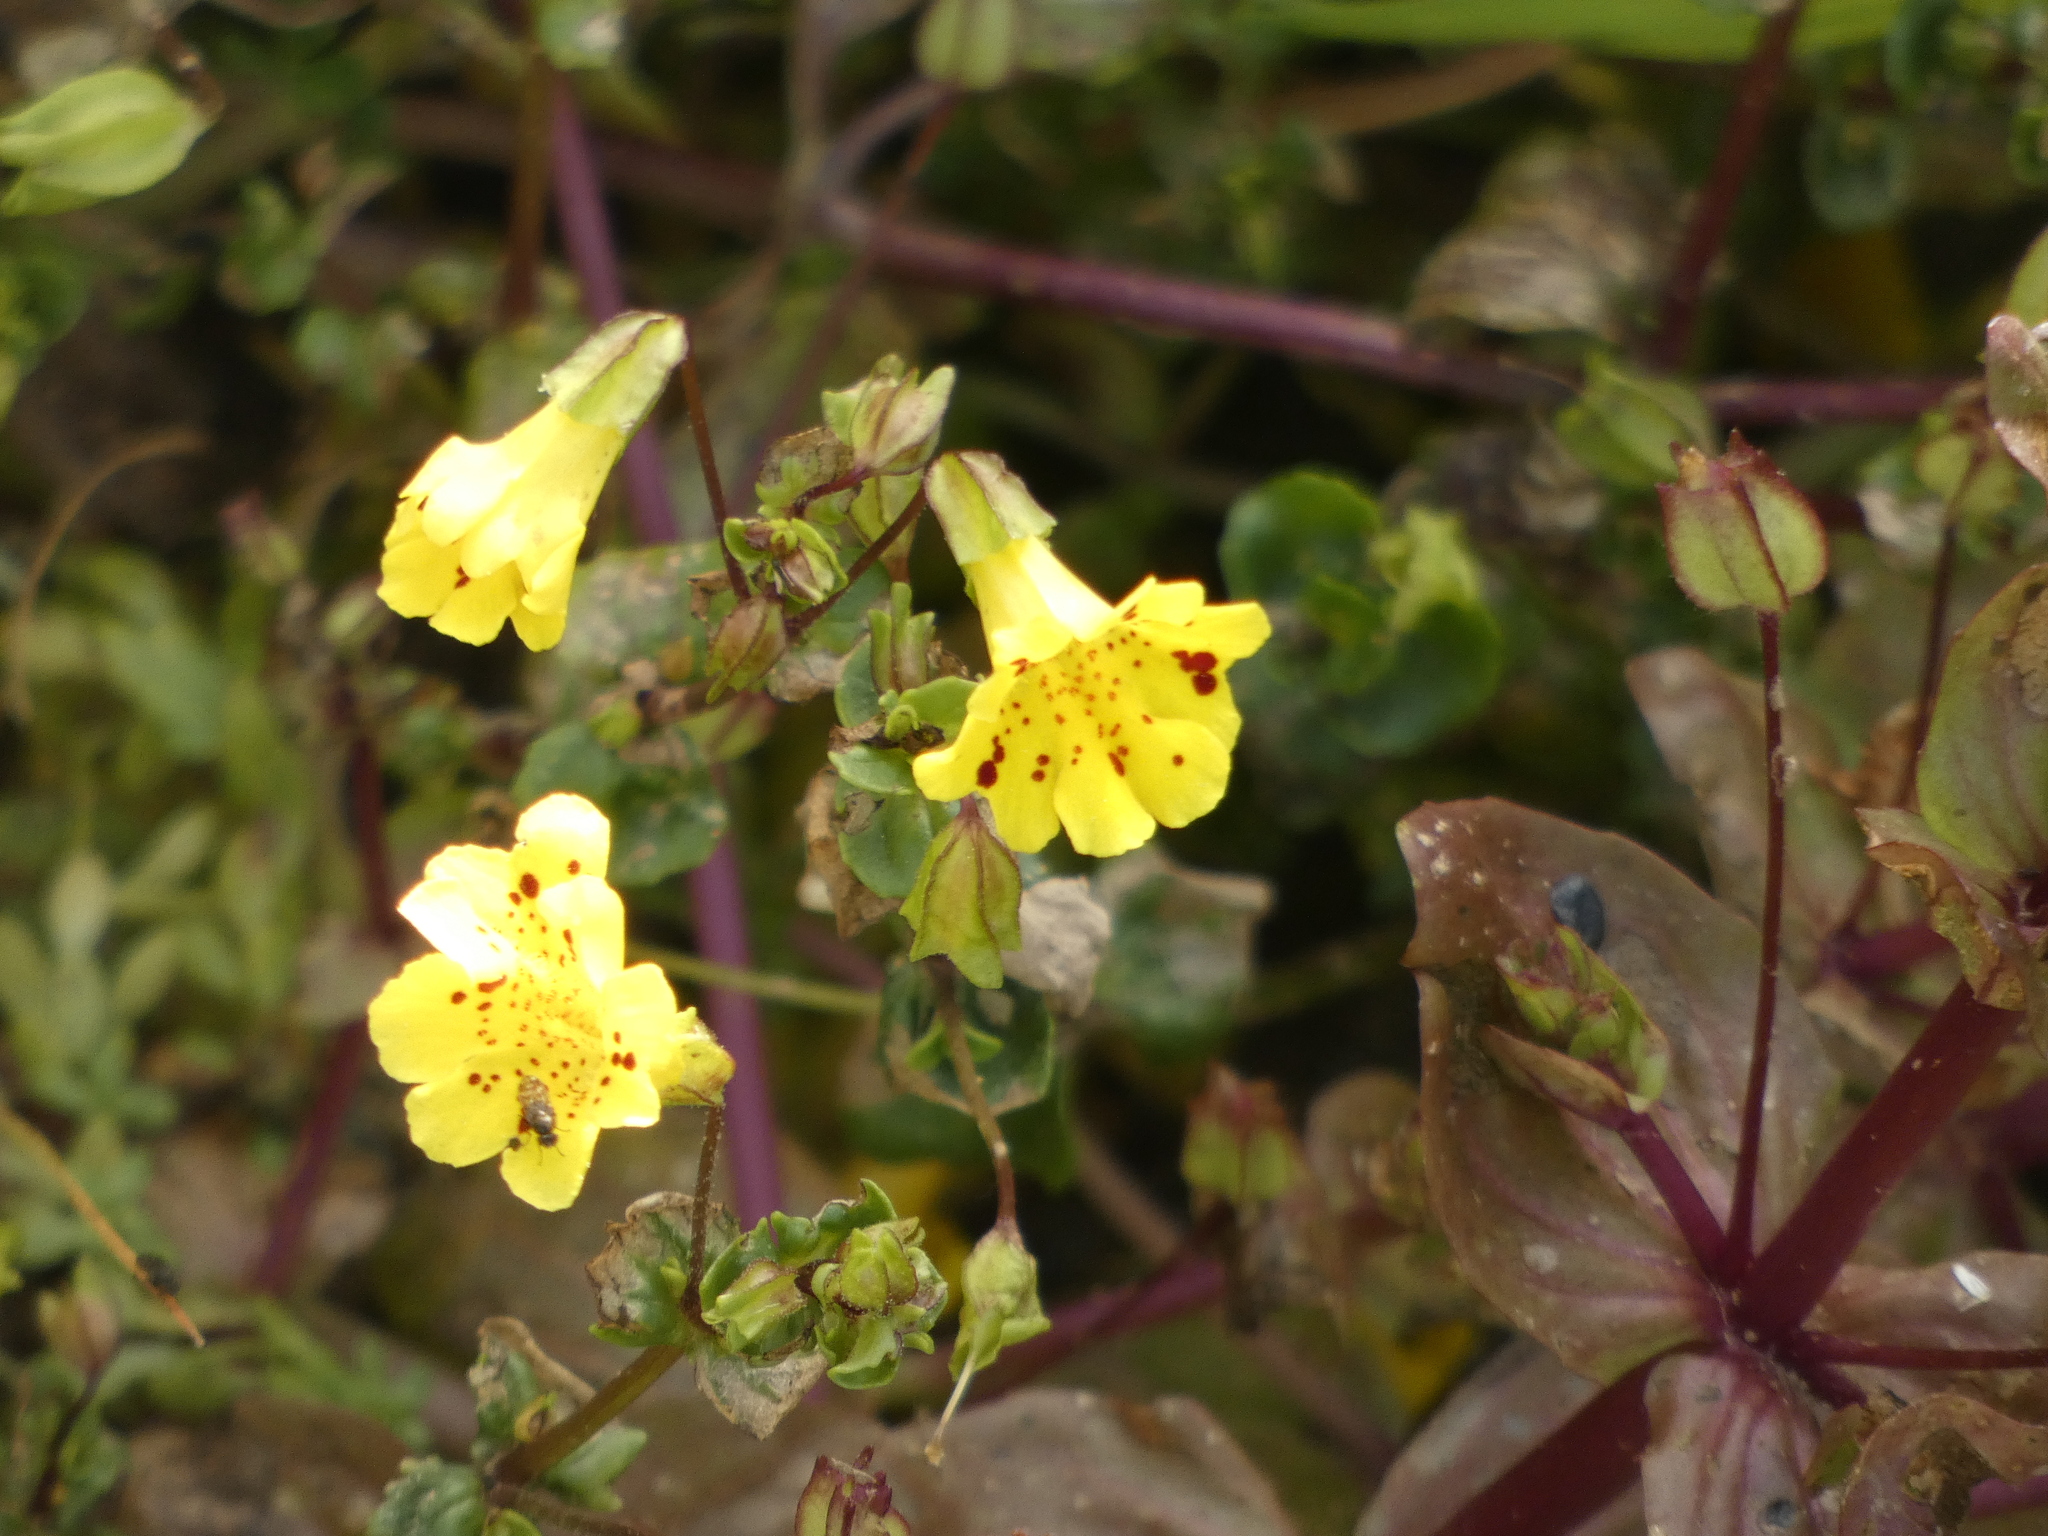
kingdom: Plantae
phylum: Tracheophyta
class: Magnoliopsida
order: Lamiales
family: Phrymaceae
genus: Erythranthe
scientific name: Erythranthe bridgesii
